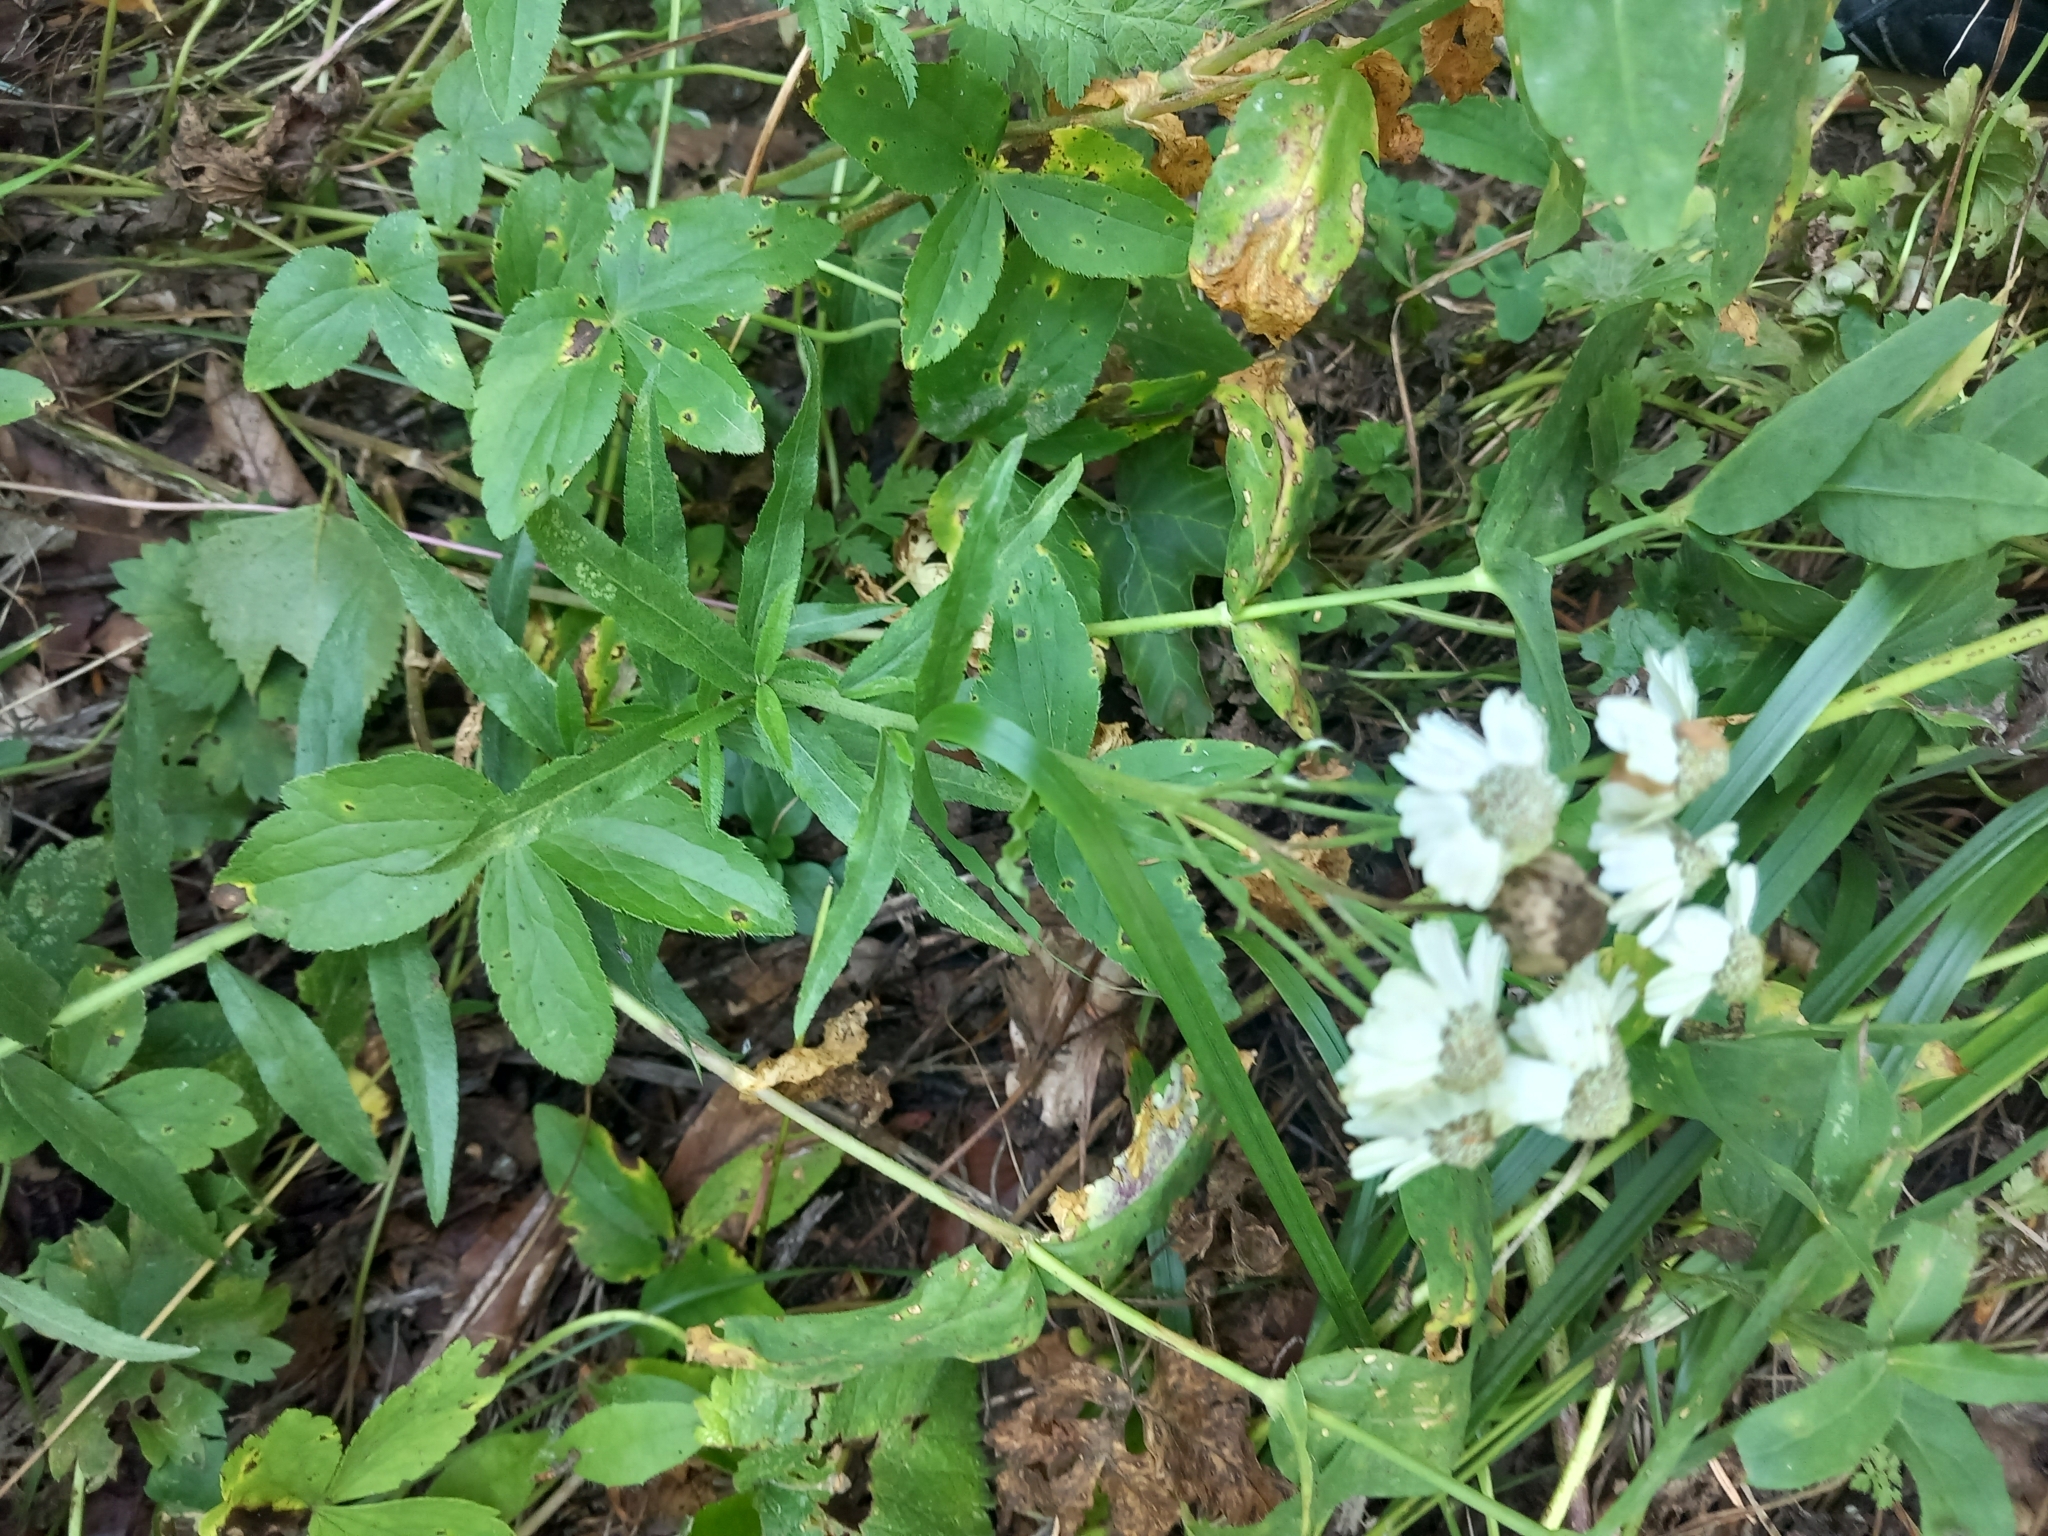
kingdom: Plantae
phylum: Tracheophyta
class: Magnoliopsida
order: Asterales
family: Asteraceae
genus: Achillea
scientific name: Achillea biserrata
